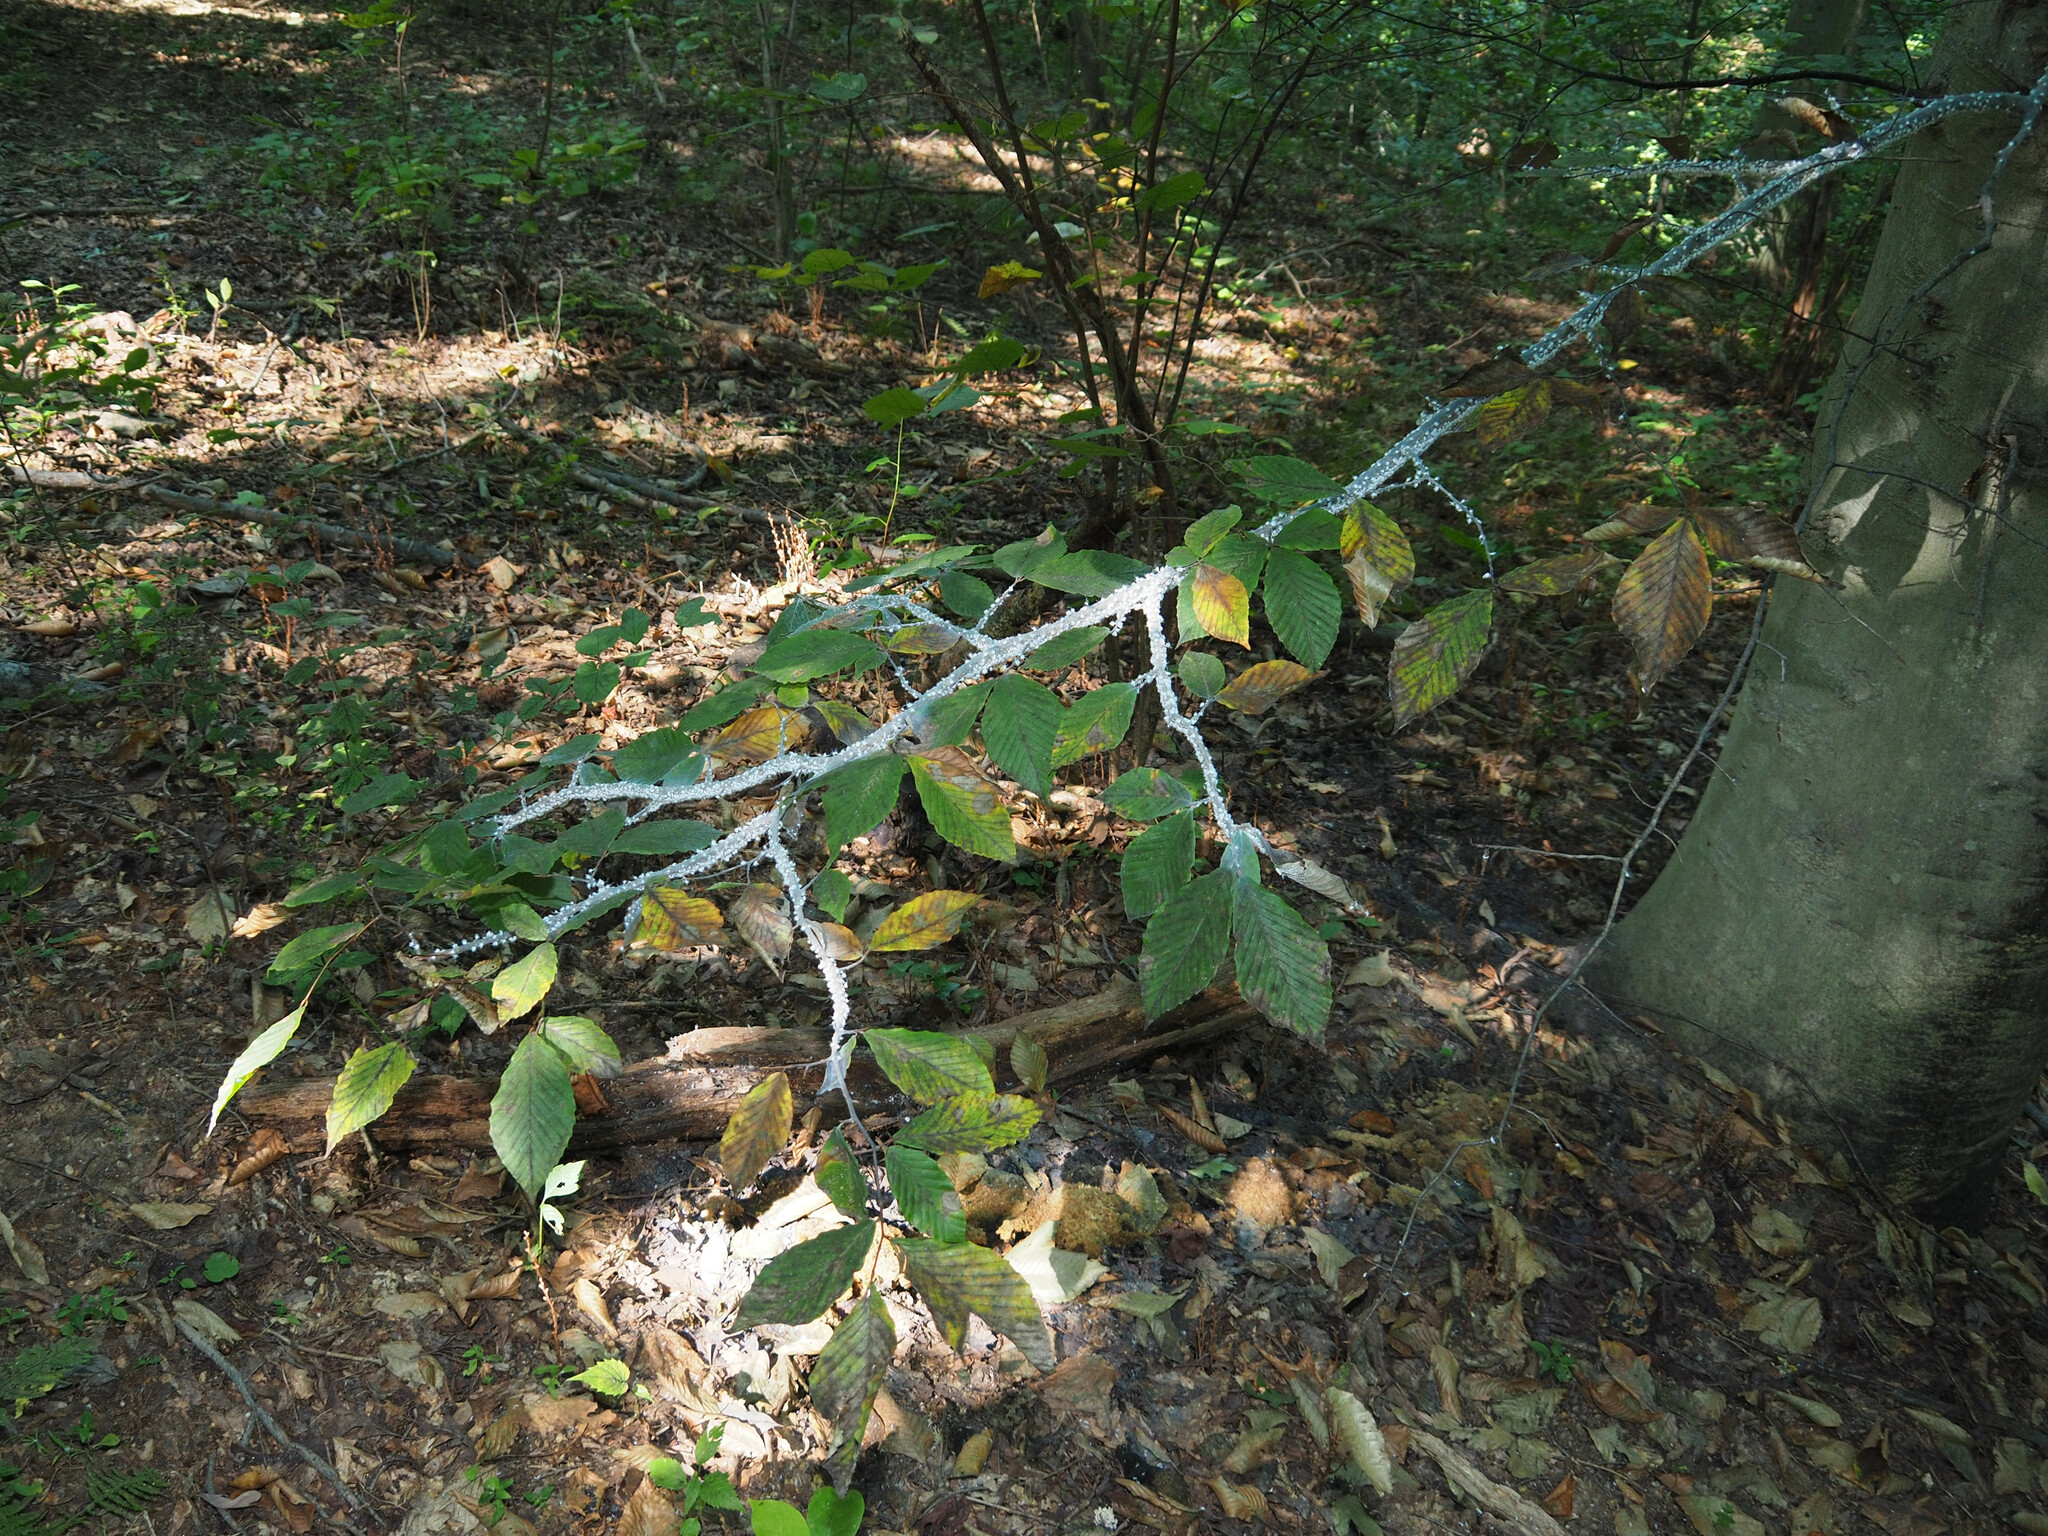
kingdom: Animalia
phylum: Arthropoda
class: Insecta
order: Hemiptera
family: Aphididae
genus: Grylloprociphilus
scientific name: Grylloprociphilus imbricator
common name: Beech blight aphid
